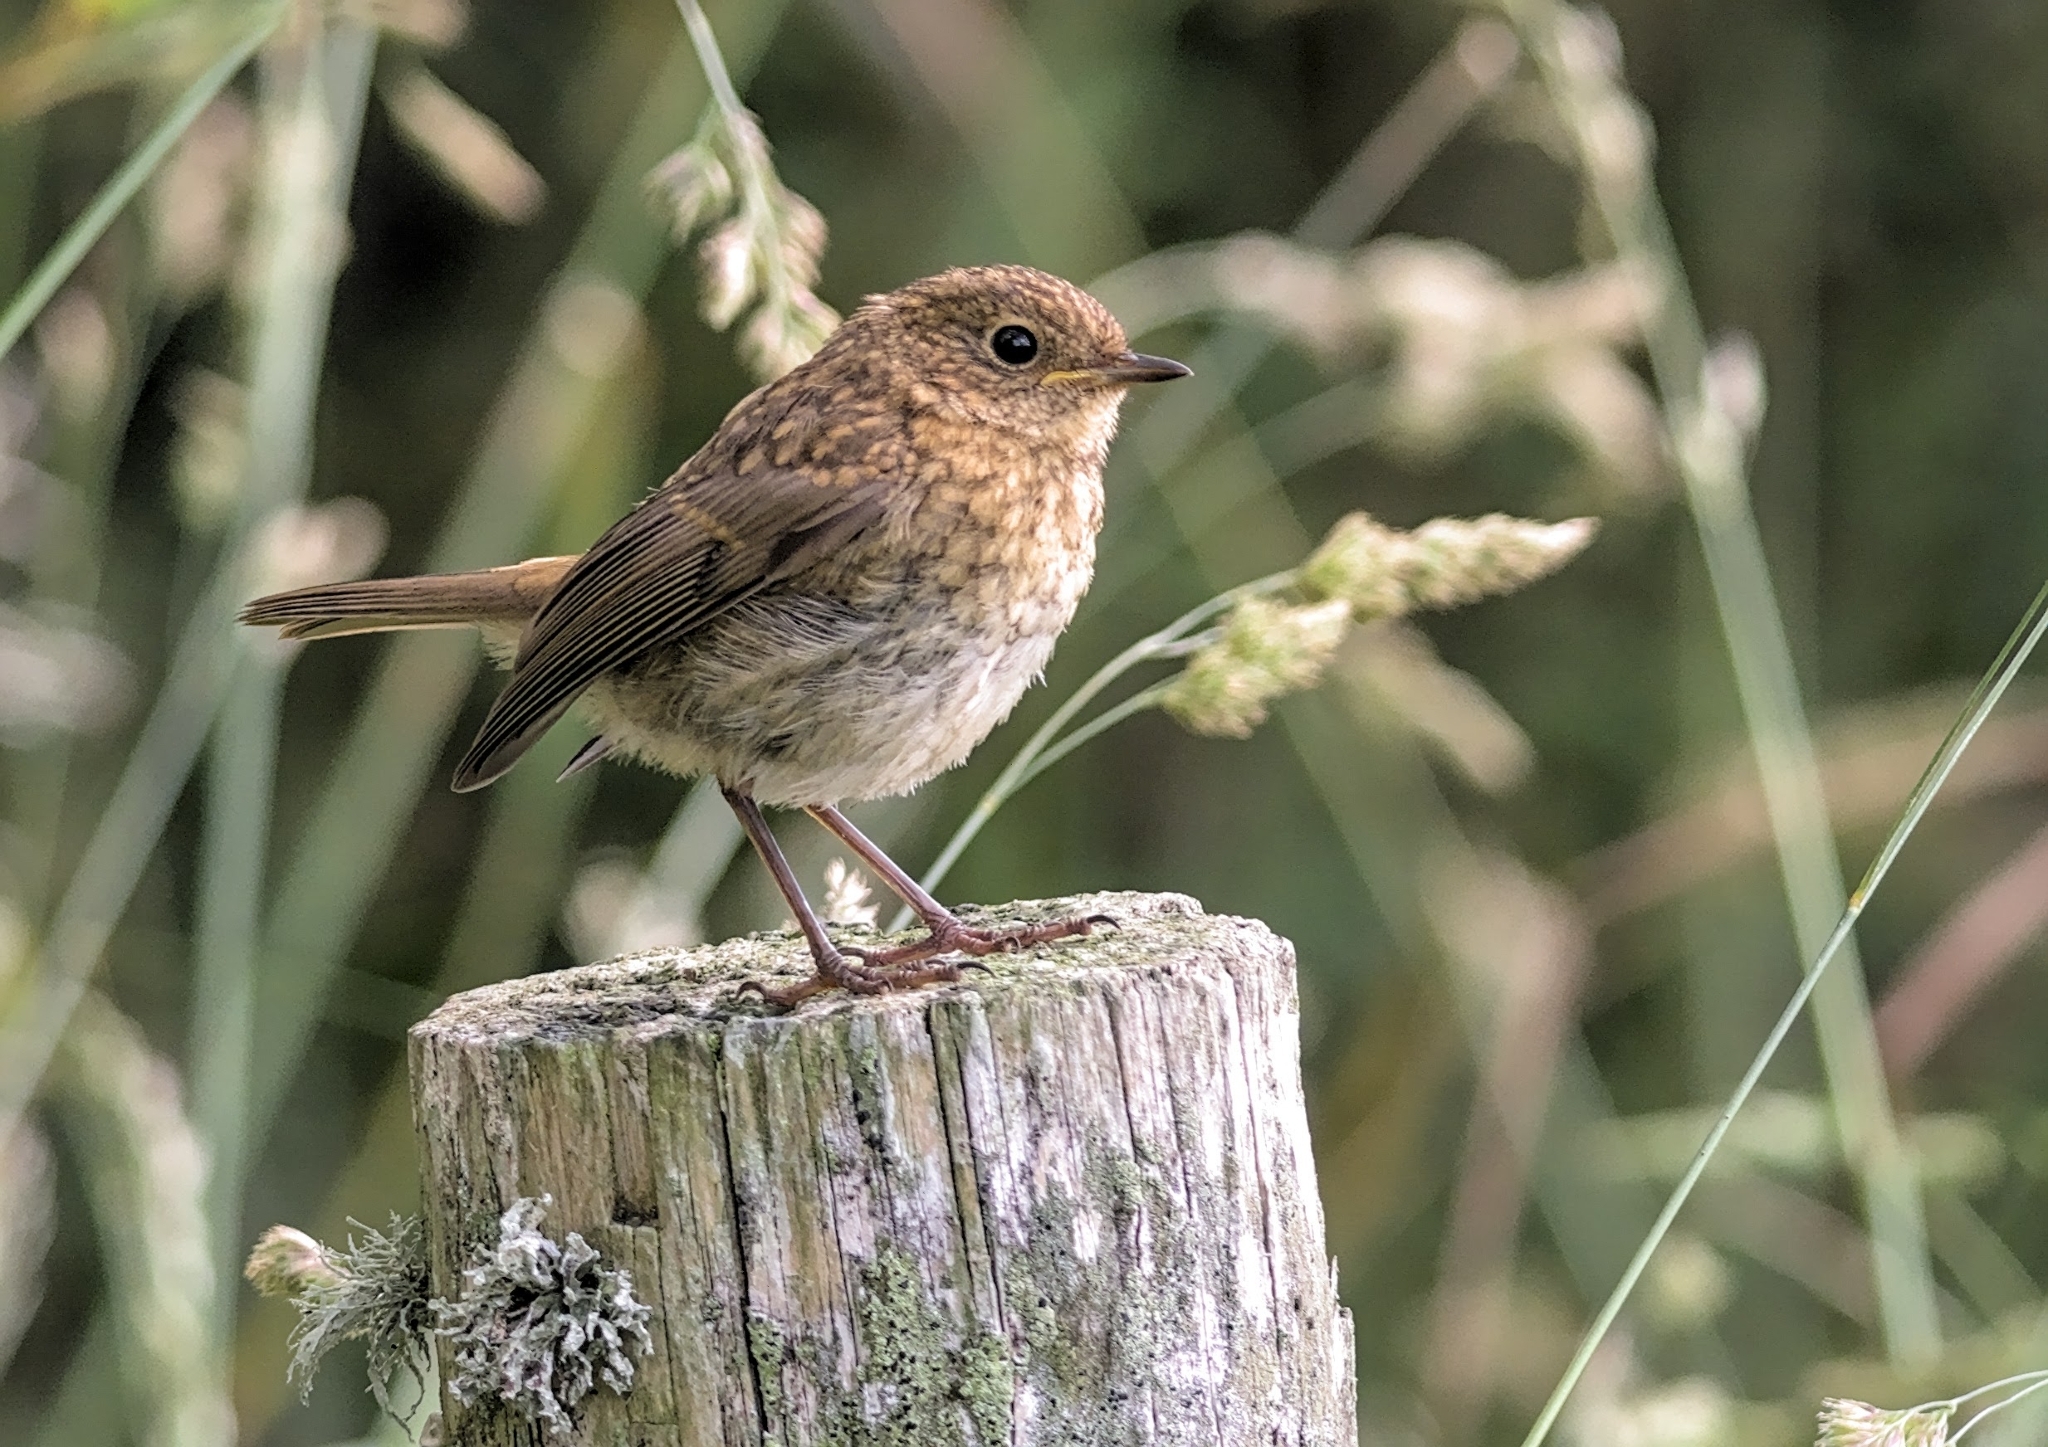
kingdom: Animalia
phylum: Chordata
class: Aves
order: Passeriformes
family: Muscicapidae
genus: Erithacus
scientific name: Erithacus rubecula
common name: European robin
